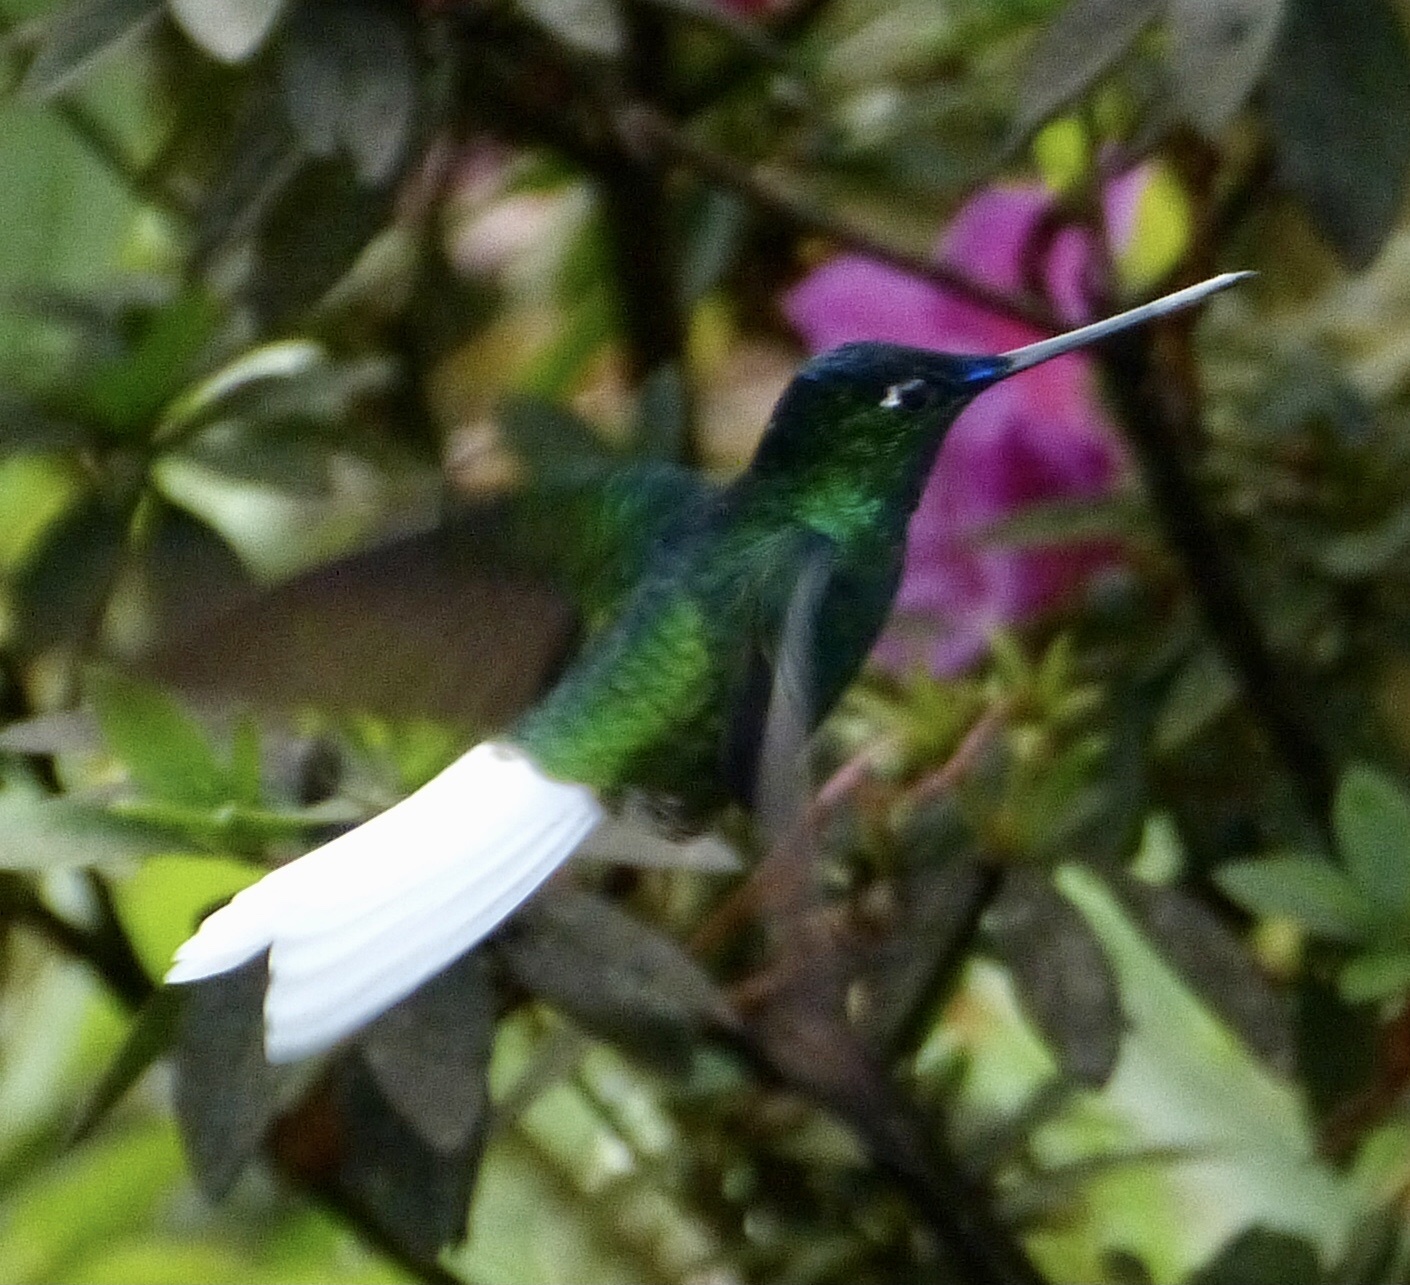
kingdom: Animalia
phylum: Chordata
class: Aves
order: Apodiformes
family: Trochilidae
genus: Coeligena
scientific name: Coeligena phalerata
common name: White-tailed starfrontlet
